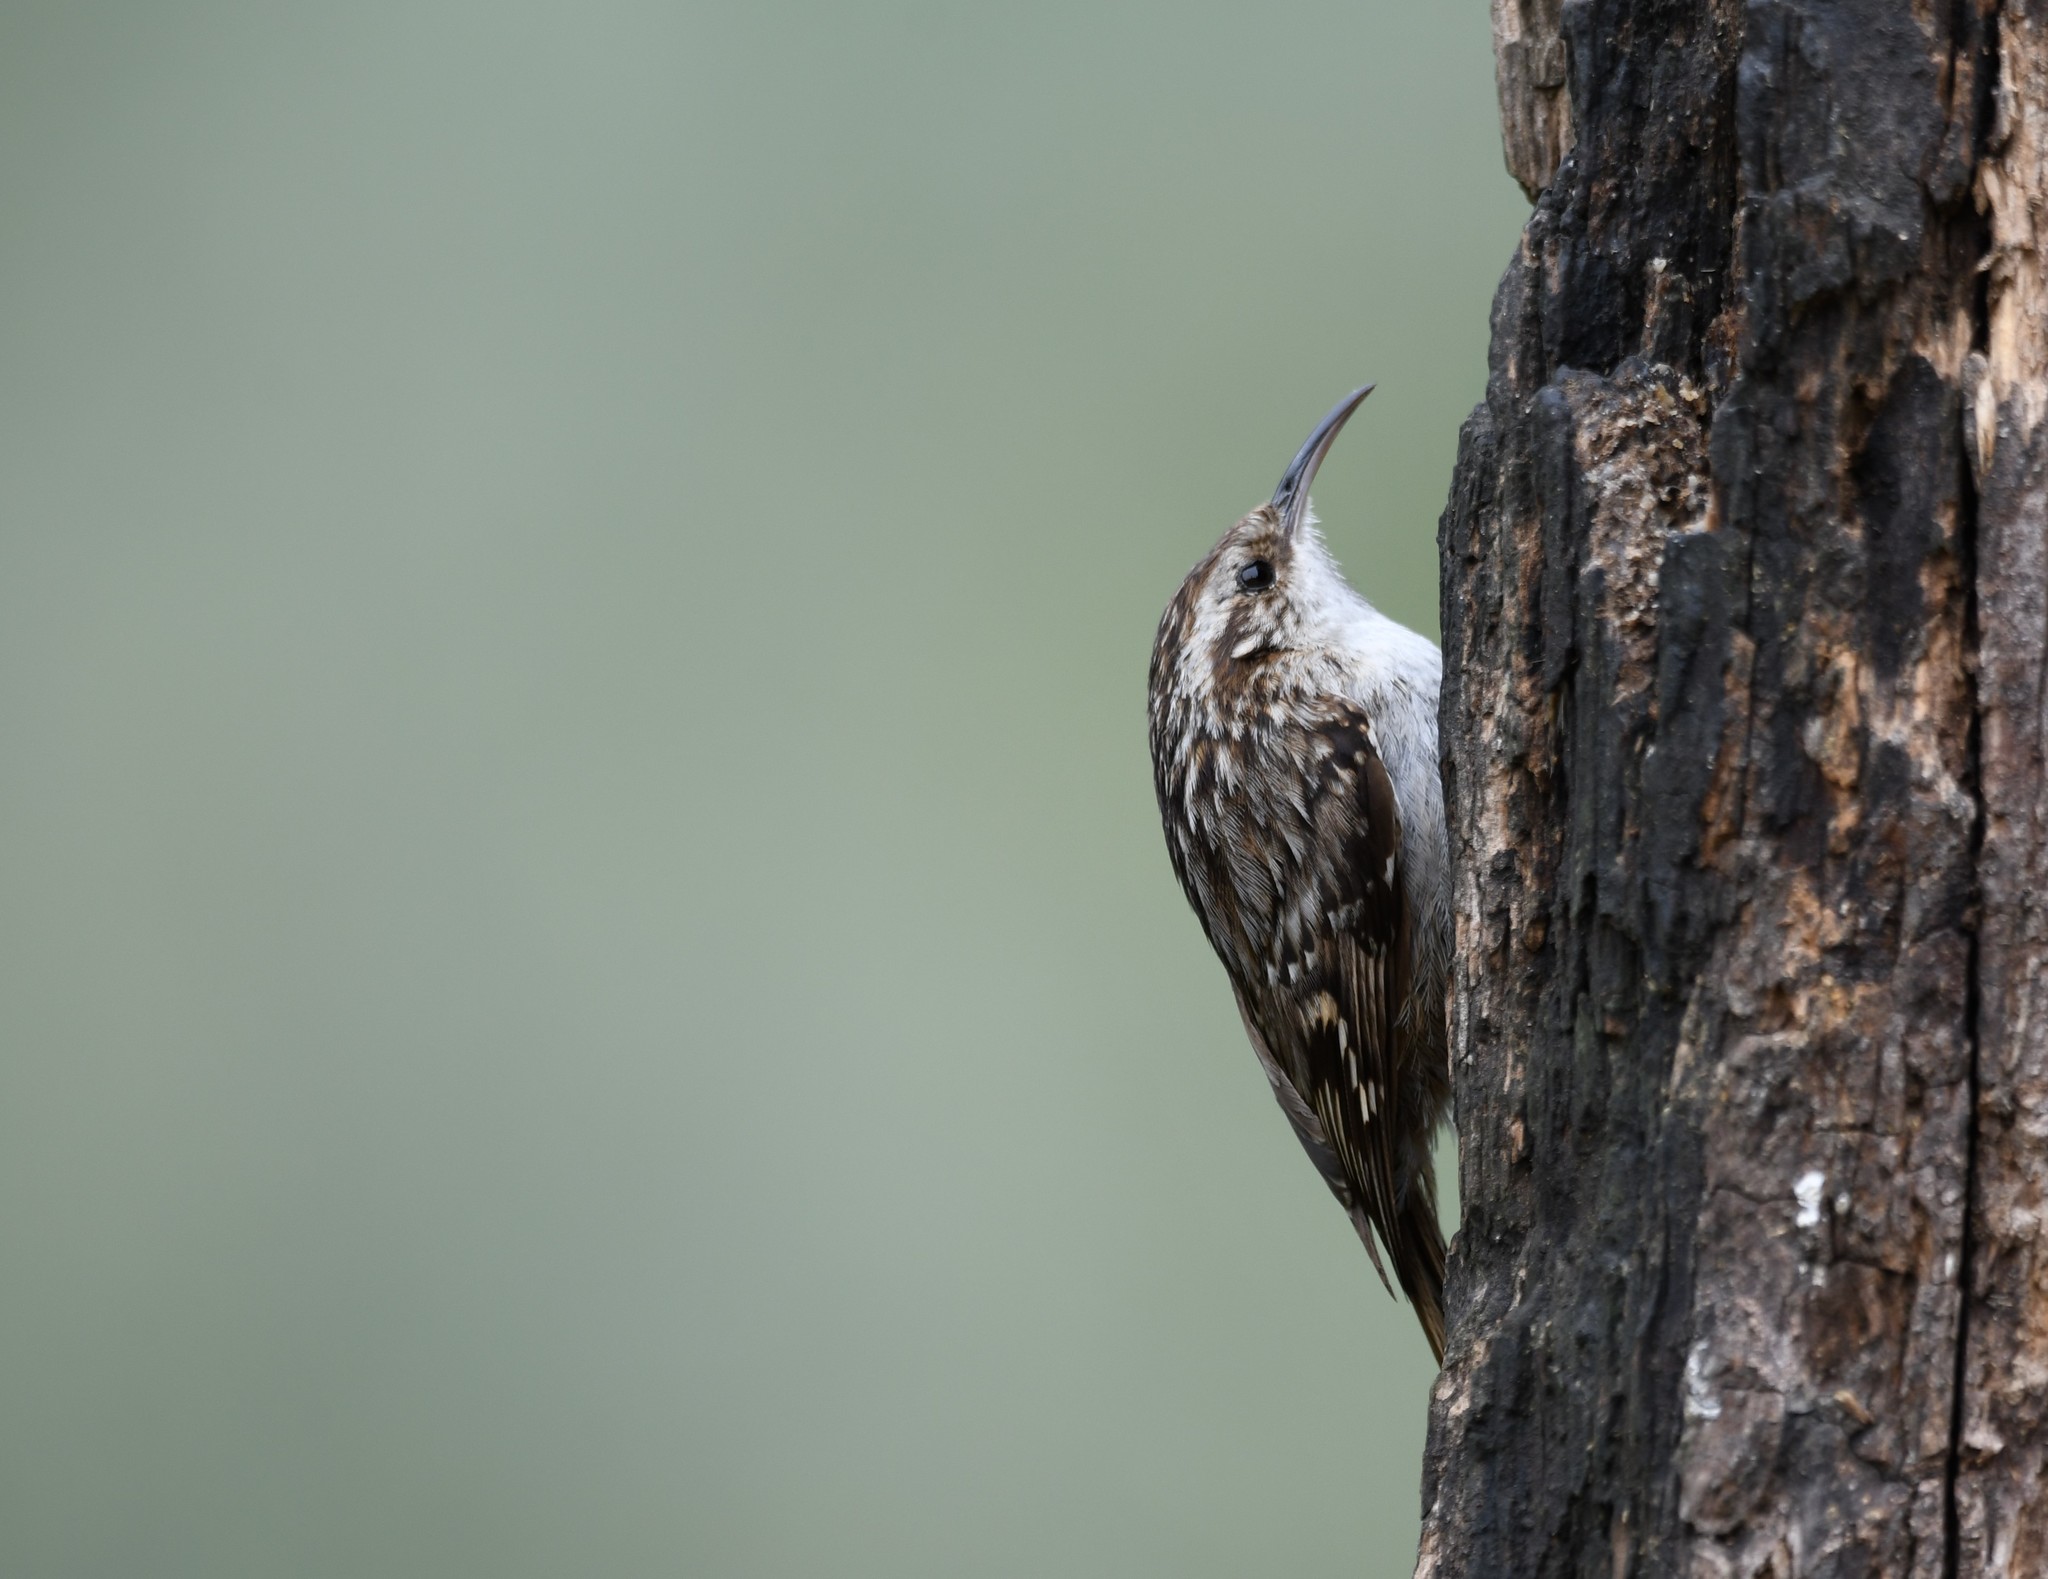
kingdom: Animalia
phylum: Chordata
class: Aves
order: Passeriformes
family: Certhiidae
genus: Certhia
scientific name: Certhia brachydactyla
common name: Short-toed treecreeper
